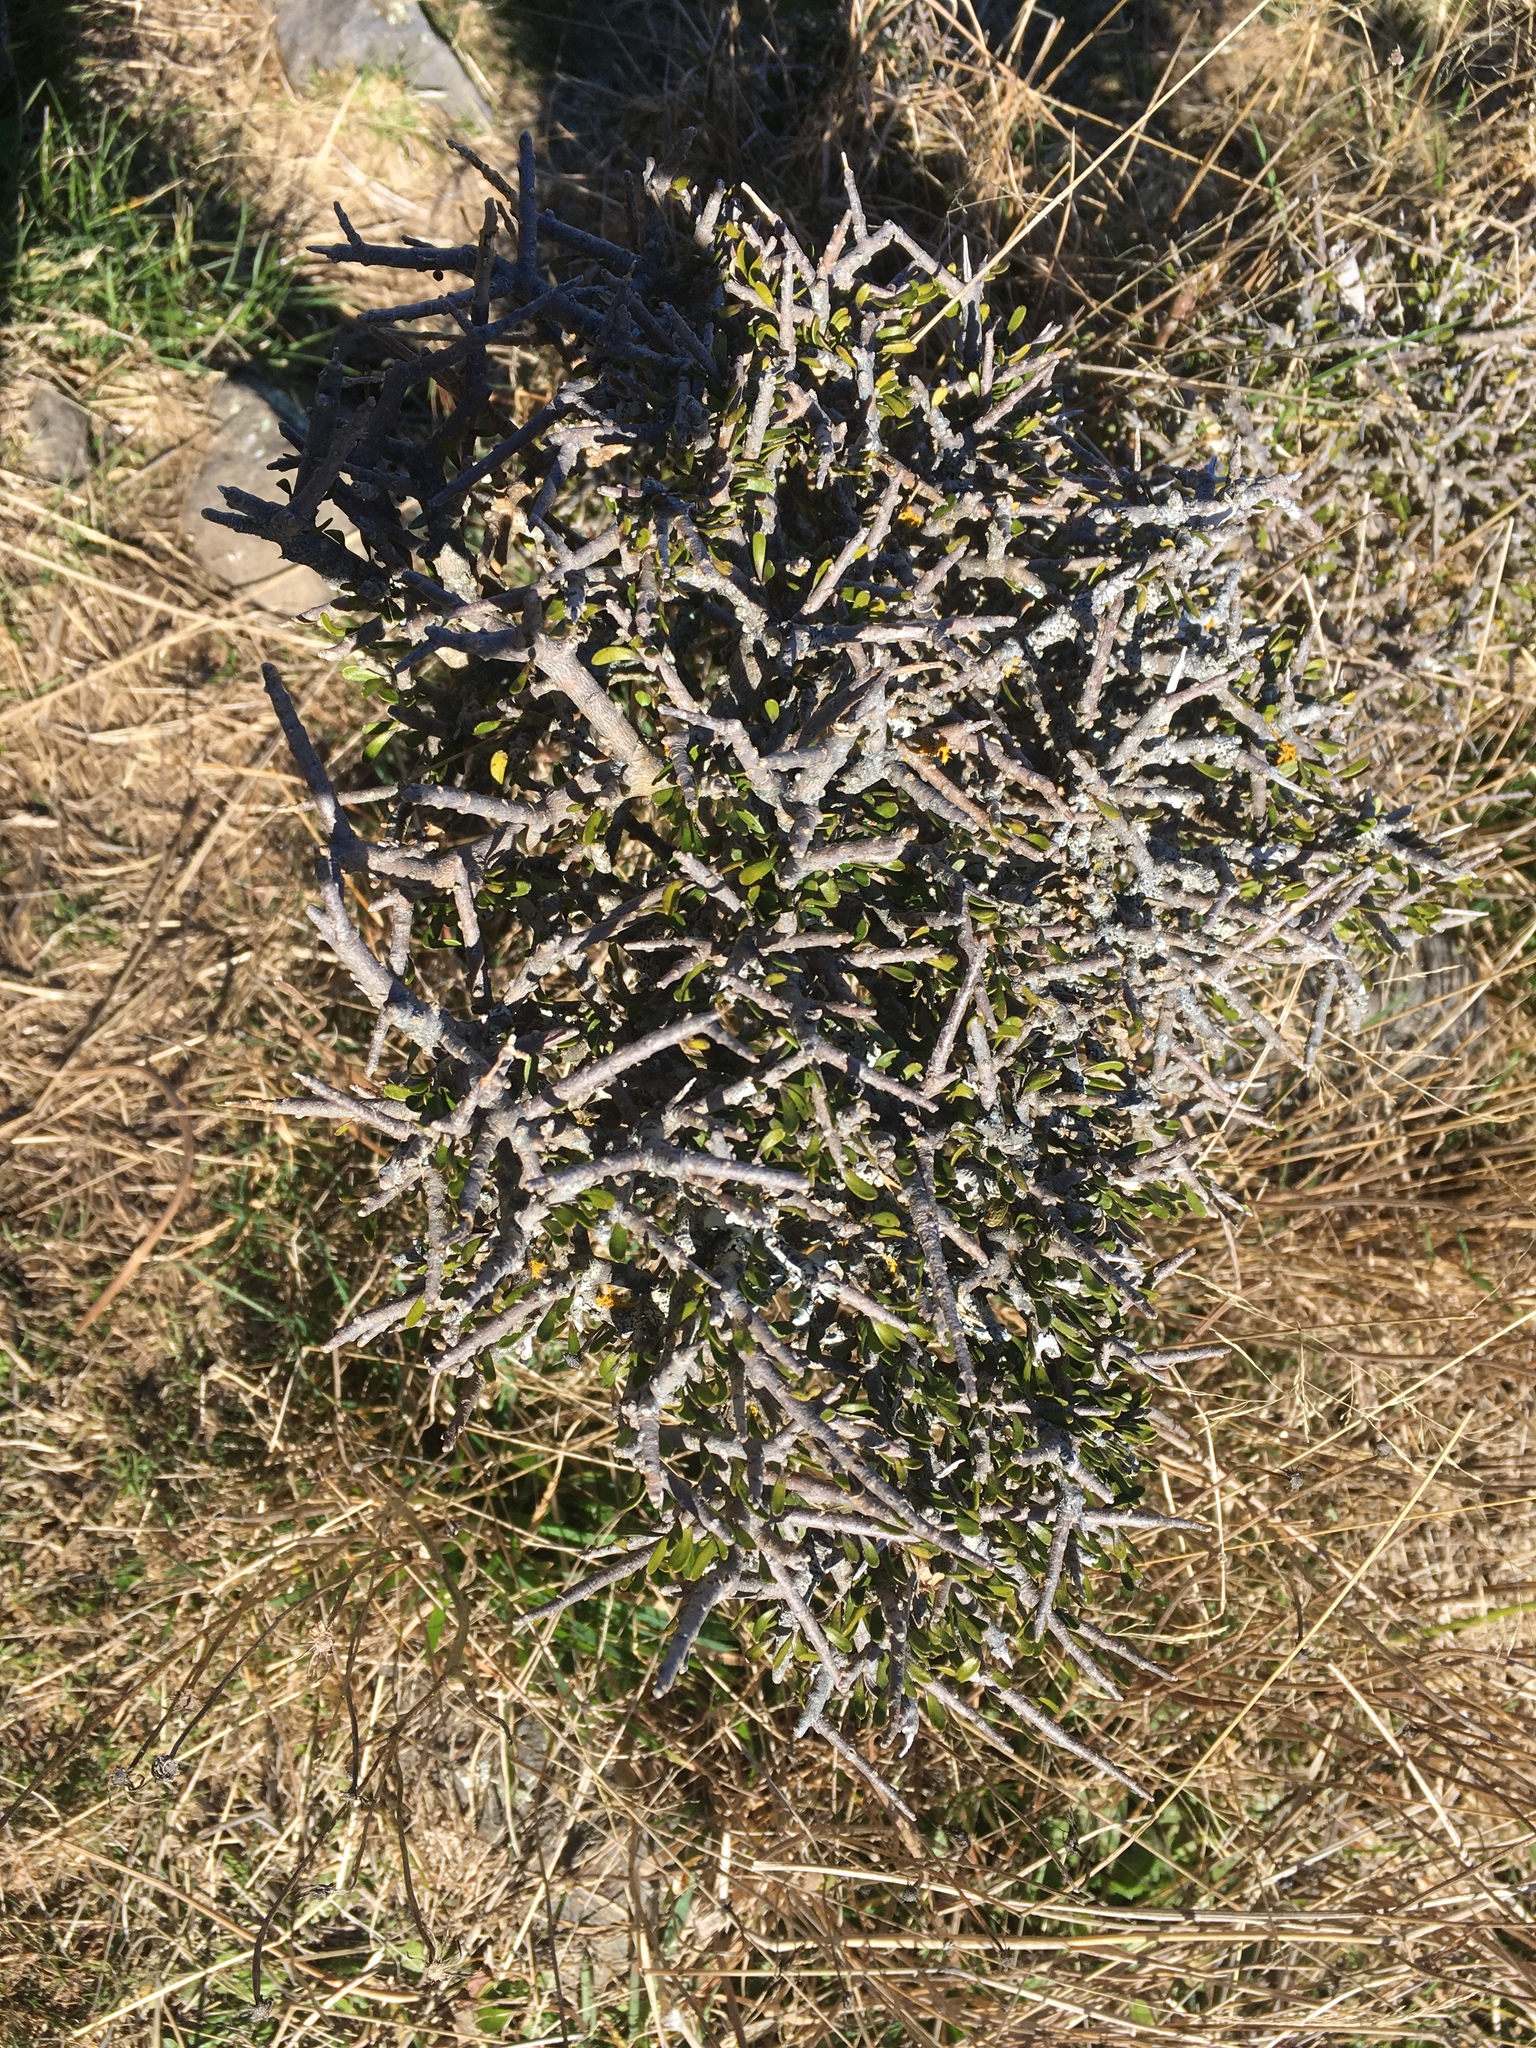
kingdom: Plantae
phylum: Tracheophyta
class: Magnoliopsida
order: Malpighiales
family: Violaceae
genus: Melicytus
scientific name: Melicytus alpinus
